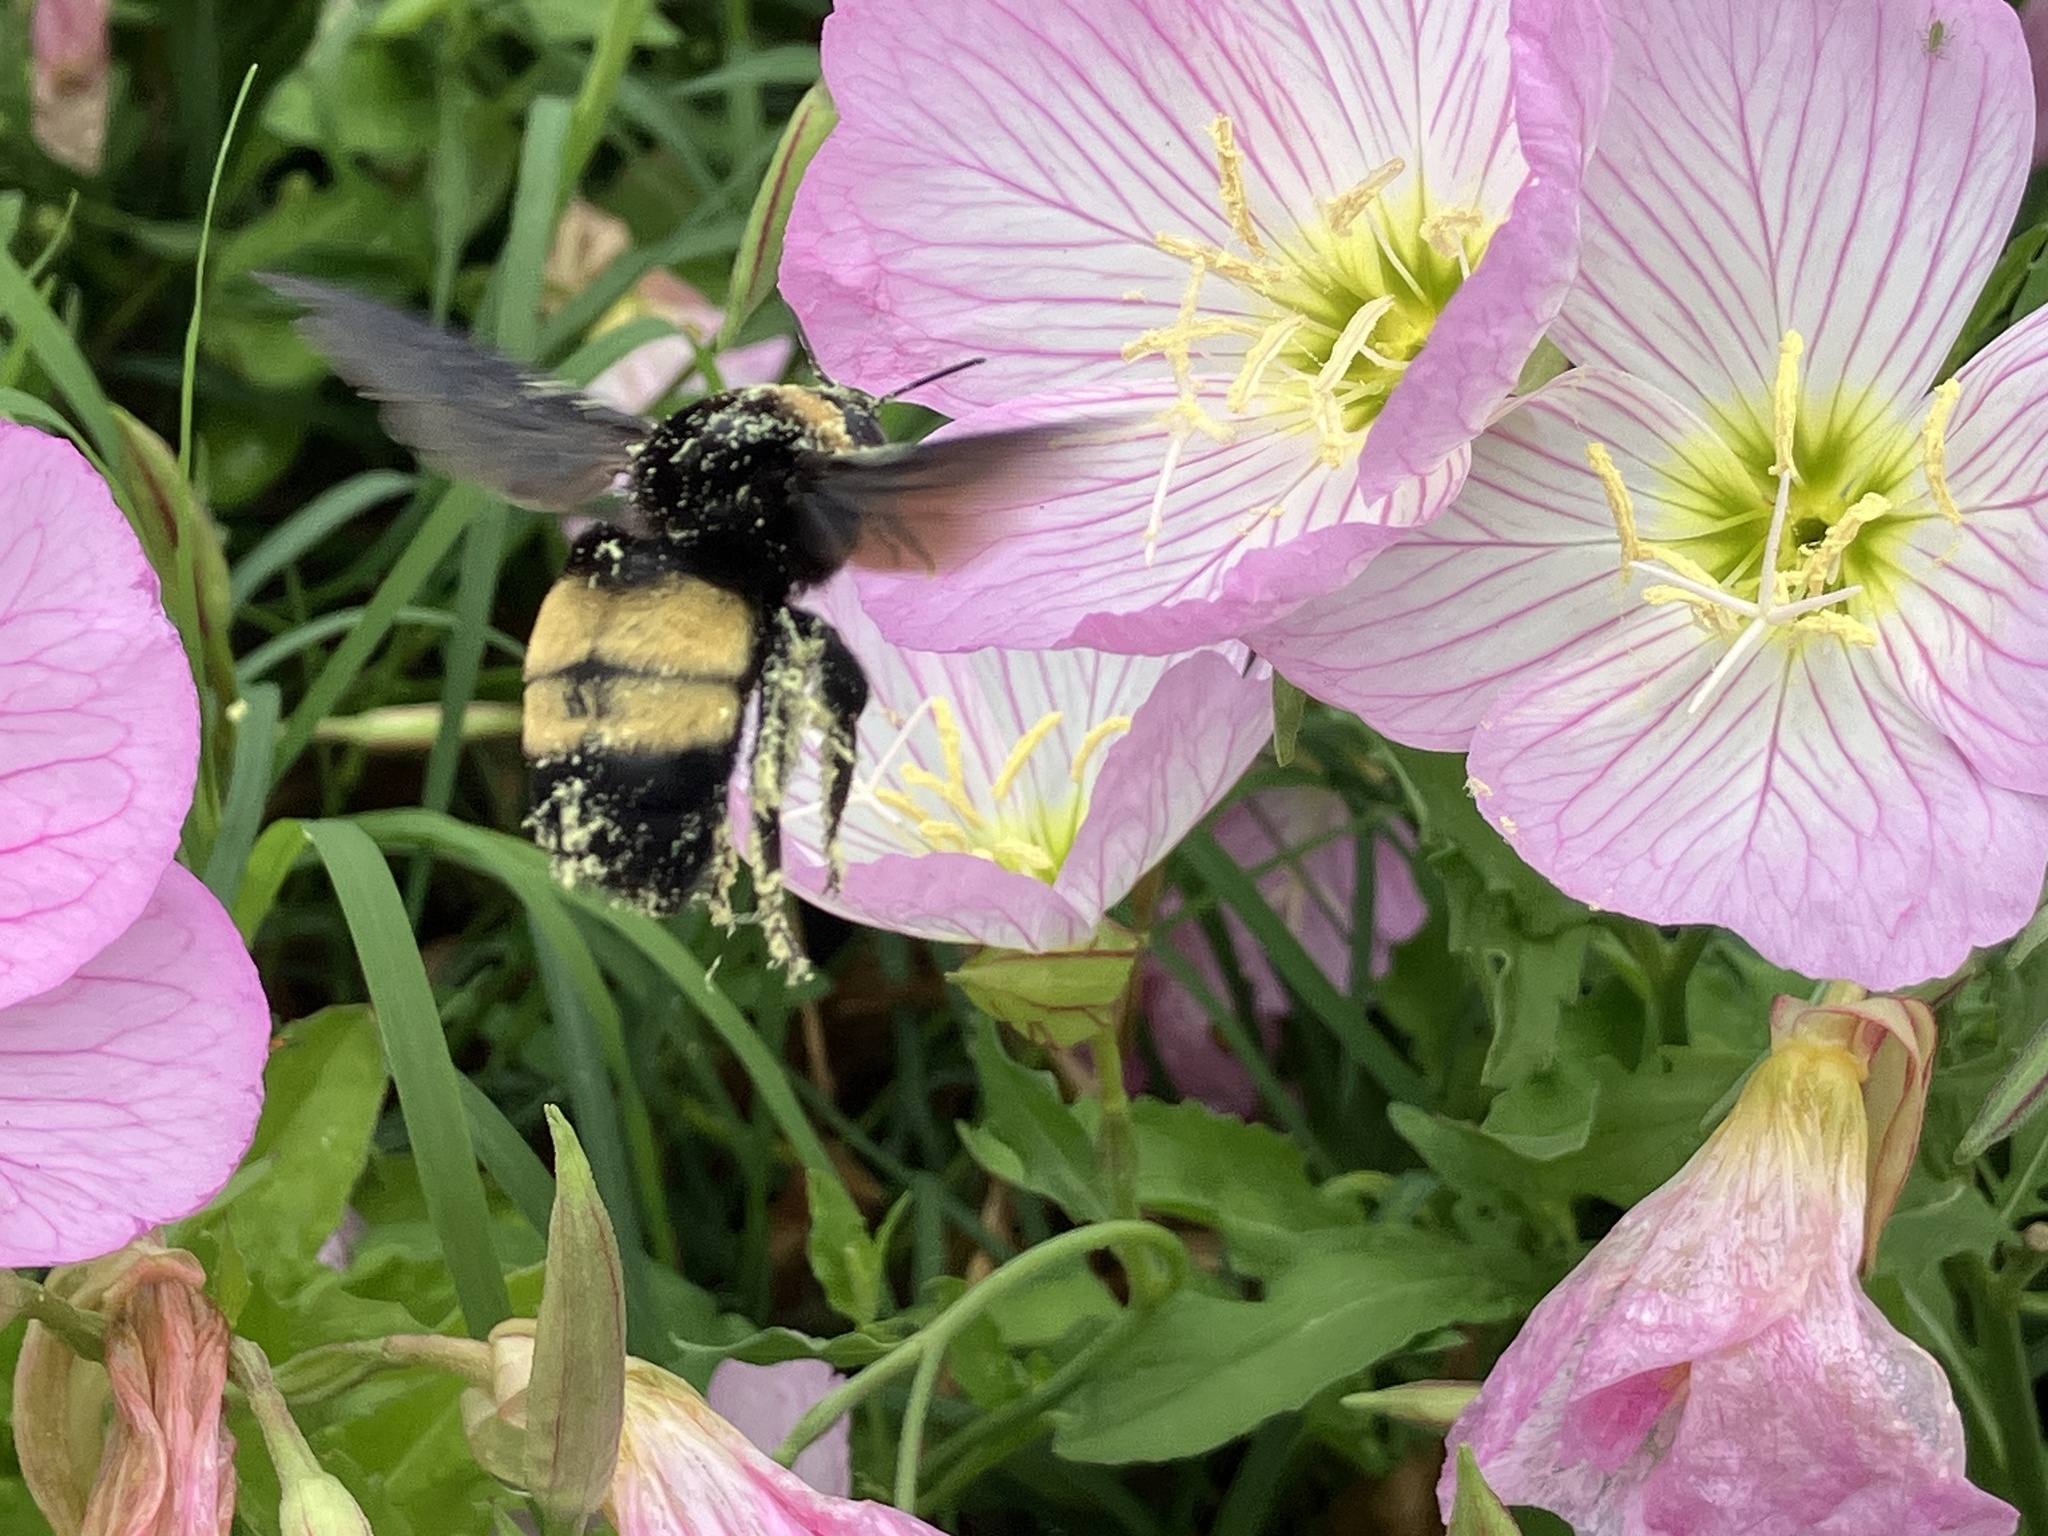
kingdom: Animalia
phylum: Arthropoda
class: Insecta
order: Hymenoptera
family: Apidae
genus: Bombus
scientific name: Bombus auricomus
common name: Black and gold bumble bee
